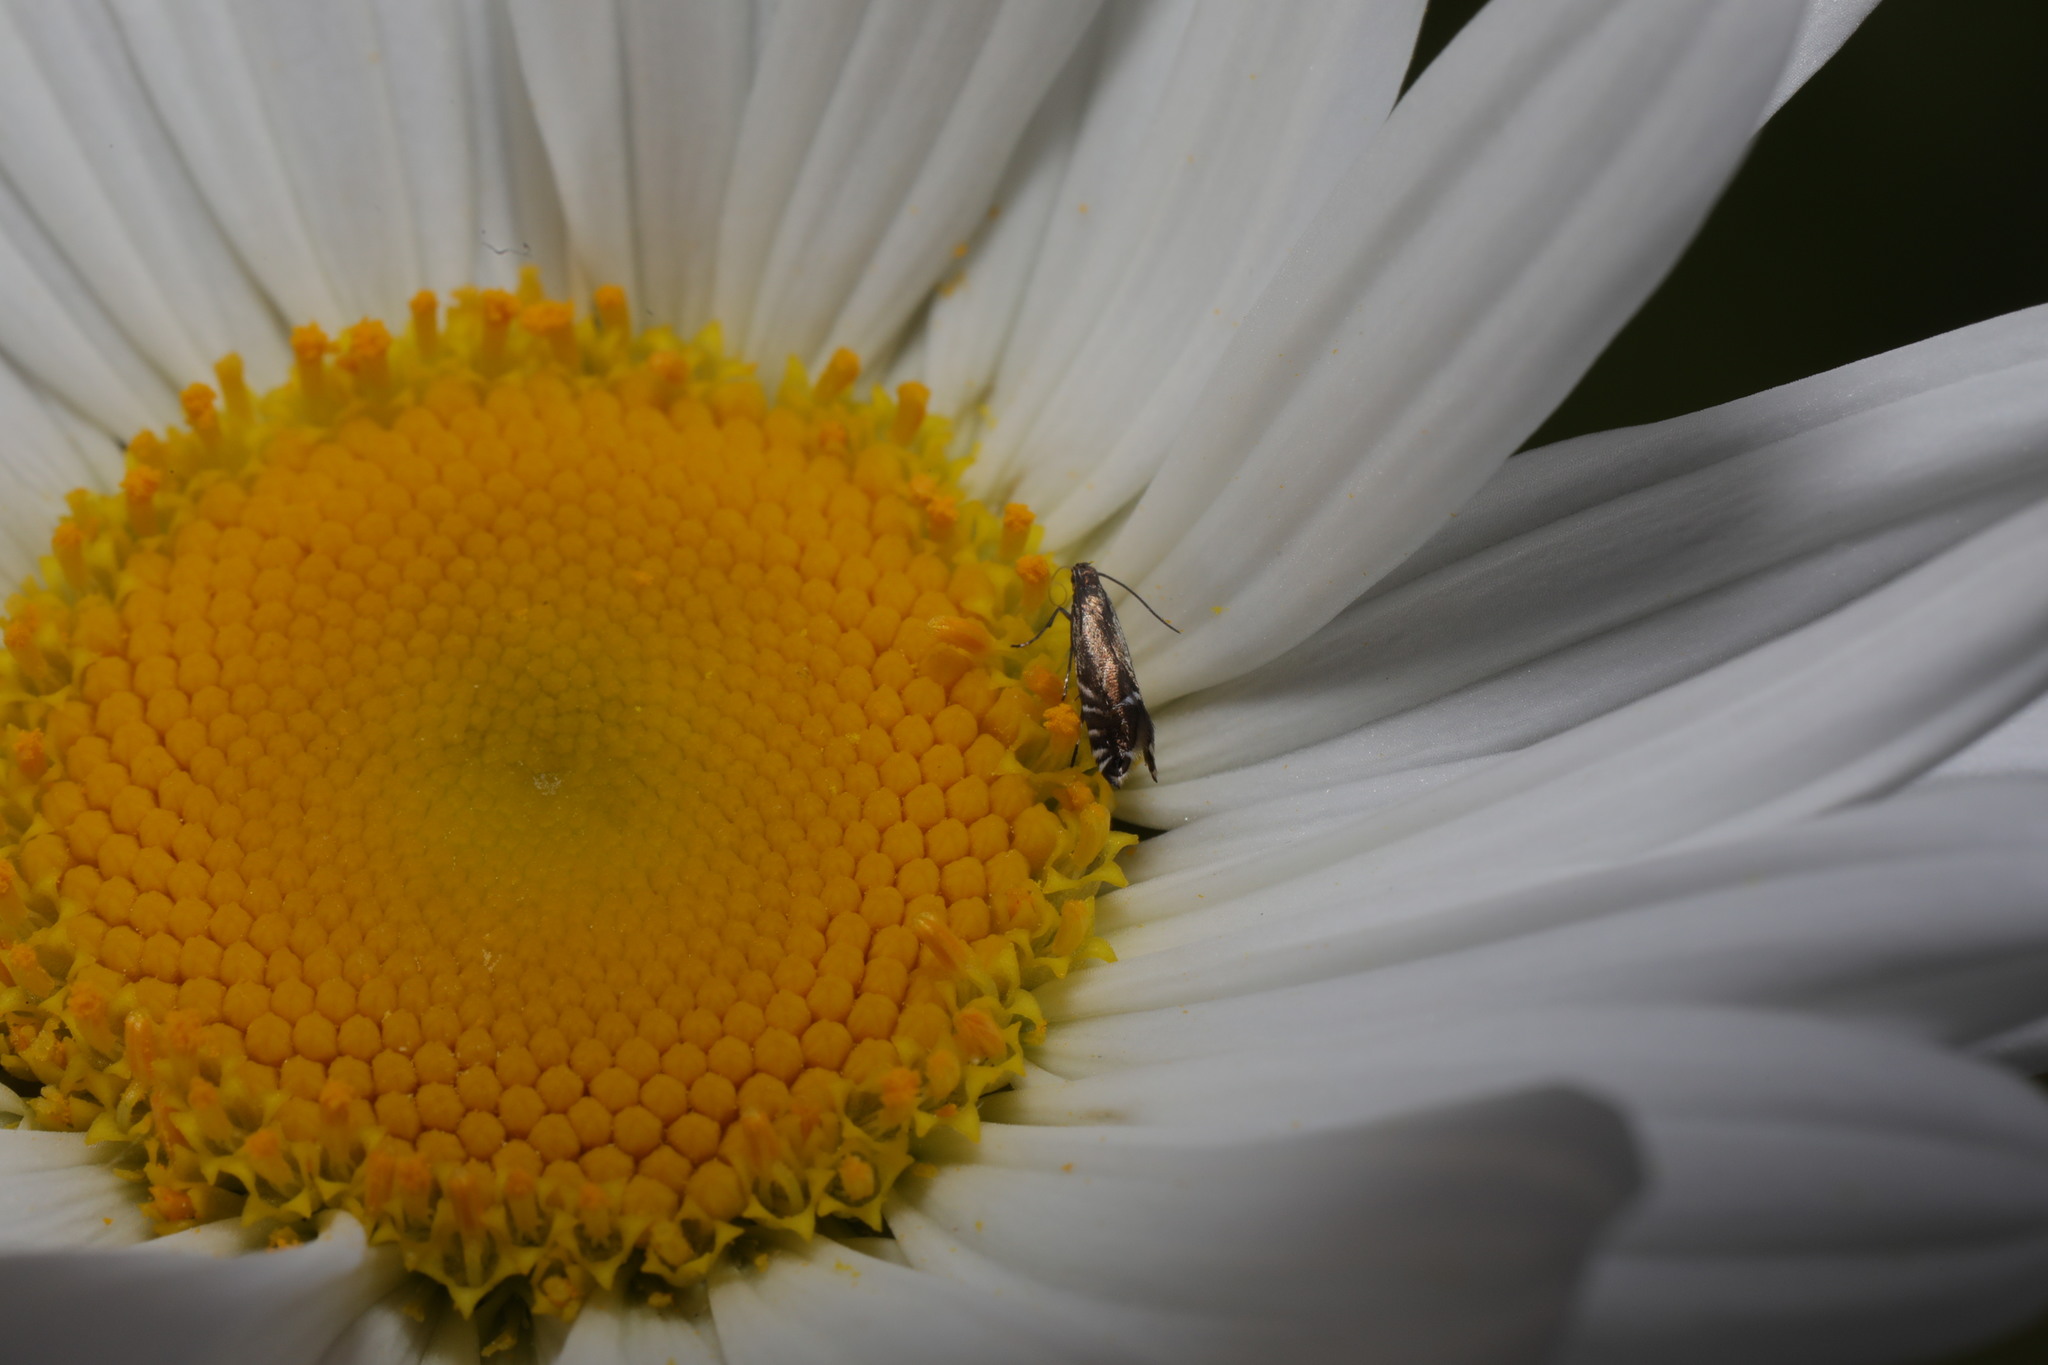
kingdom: Animalia
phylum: Arthropoda
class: Insecta
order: Lepidoptera
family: Glyphipterigidae
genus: Glyphipterix
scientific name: Glyphipterix simpliciella
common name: Cocksfoot moth
